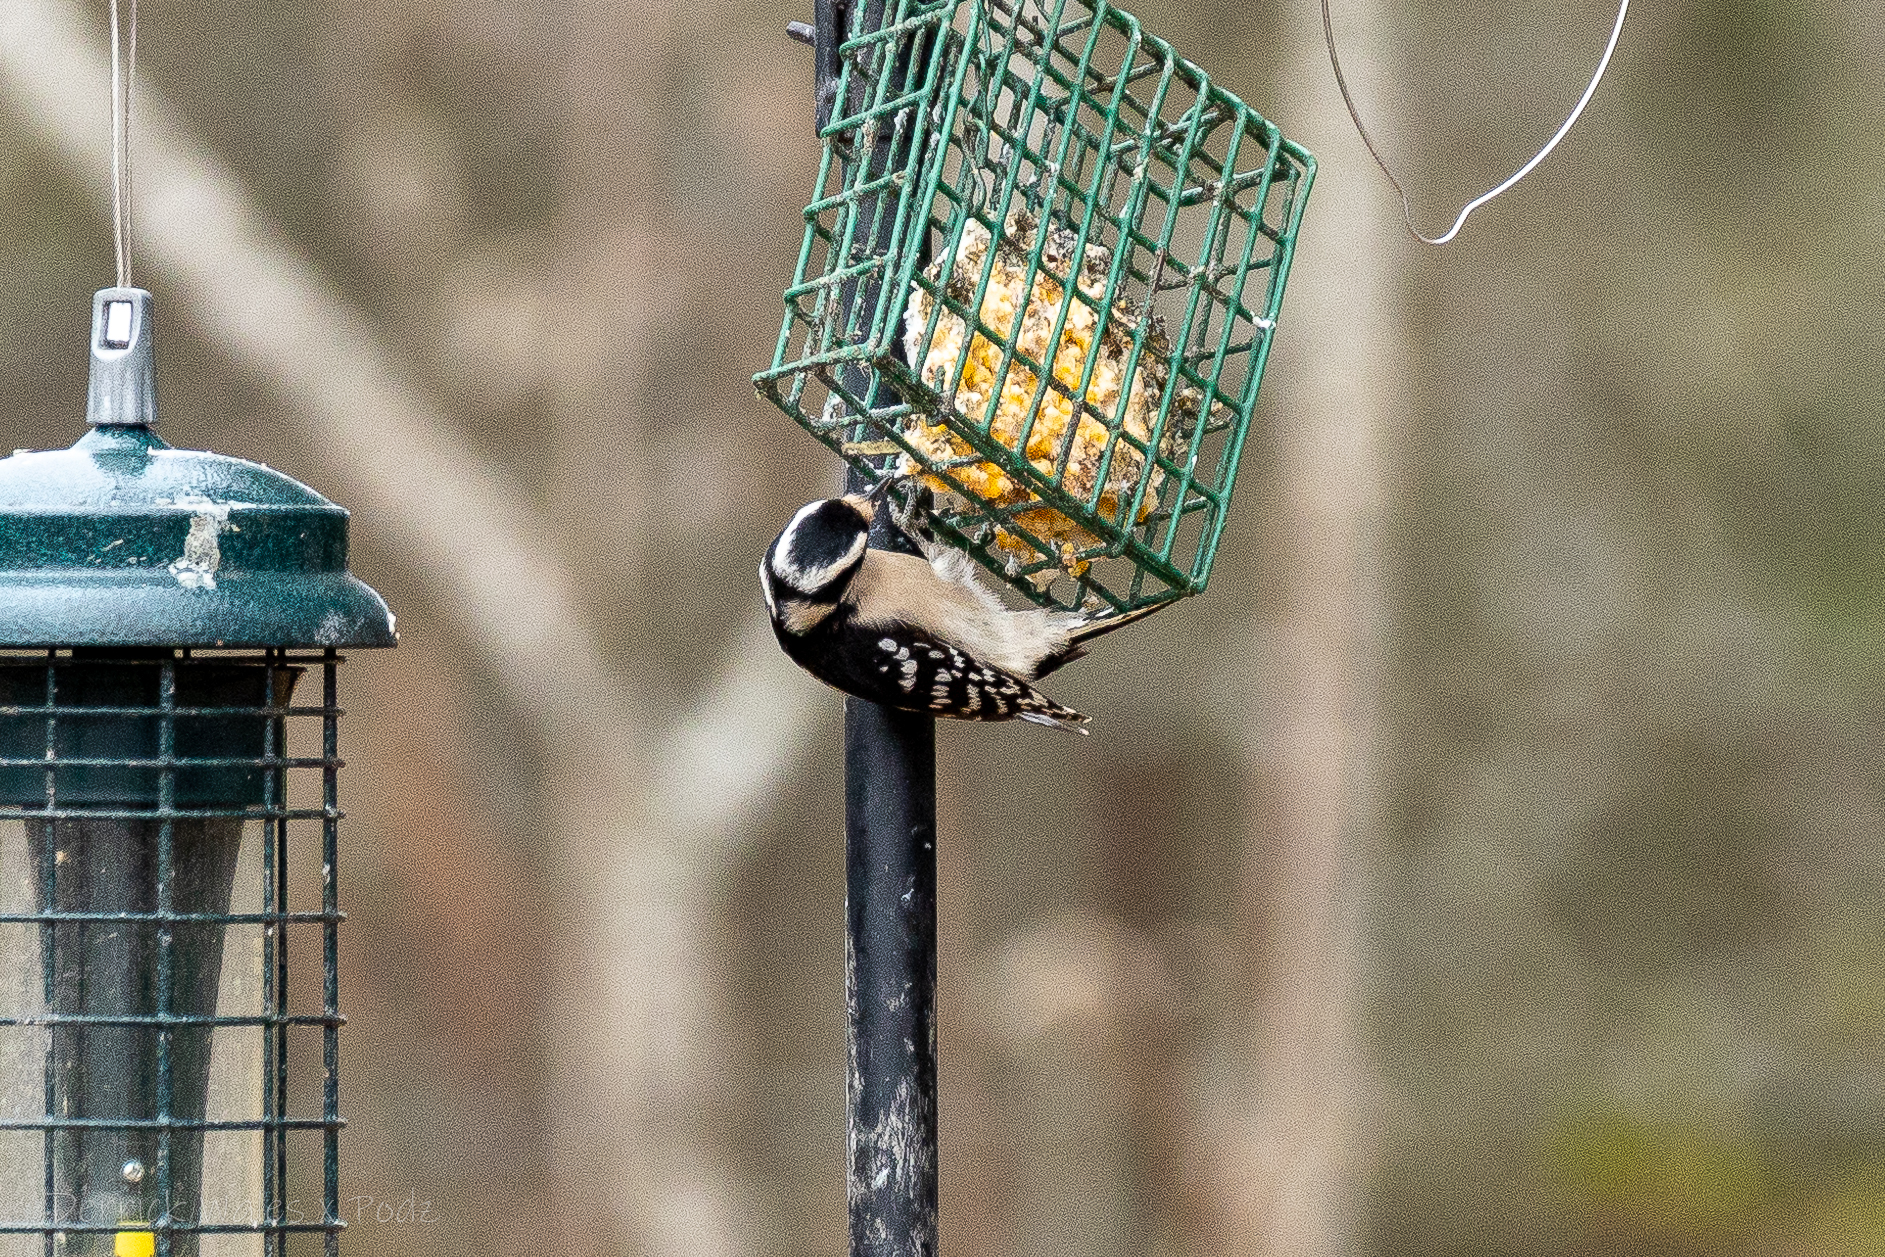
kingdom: Animalia
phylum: Chordata
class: Aves
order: Piciformes
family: Picidae
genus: Dryobates
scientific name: Dryobates pubescens
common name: Downy woodpecker
